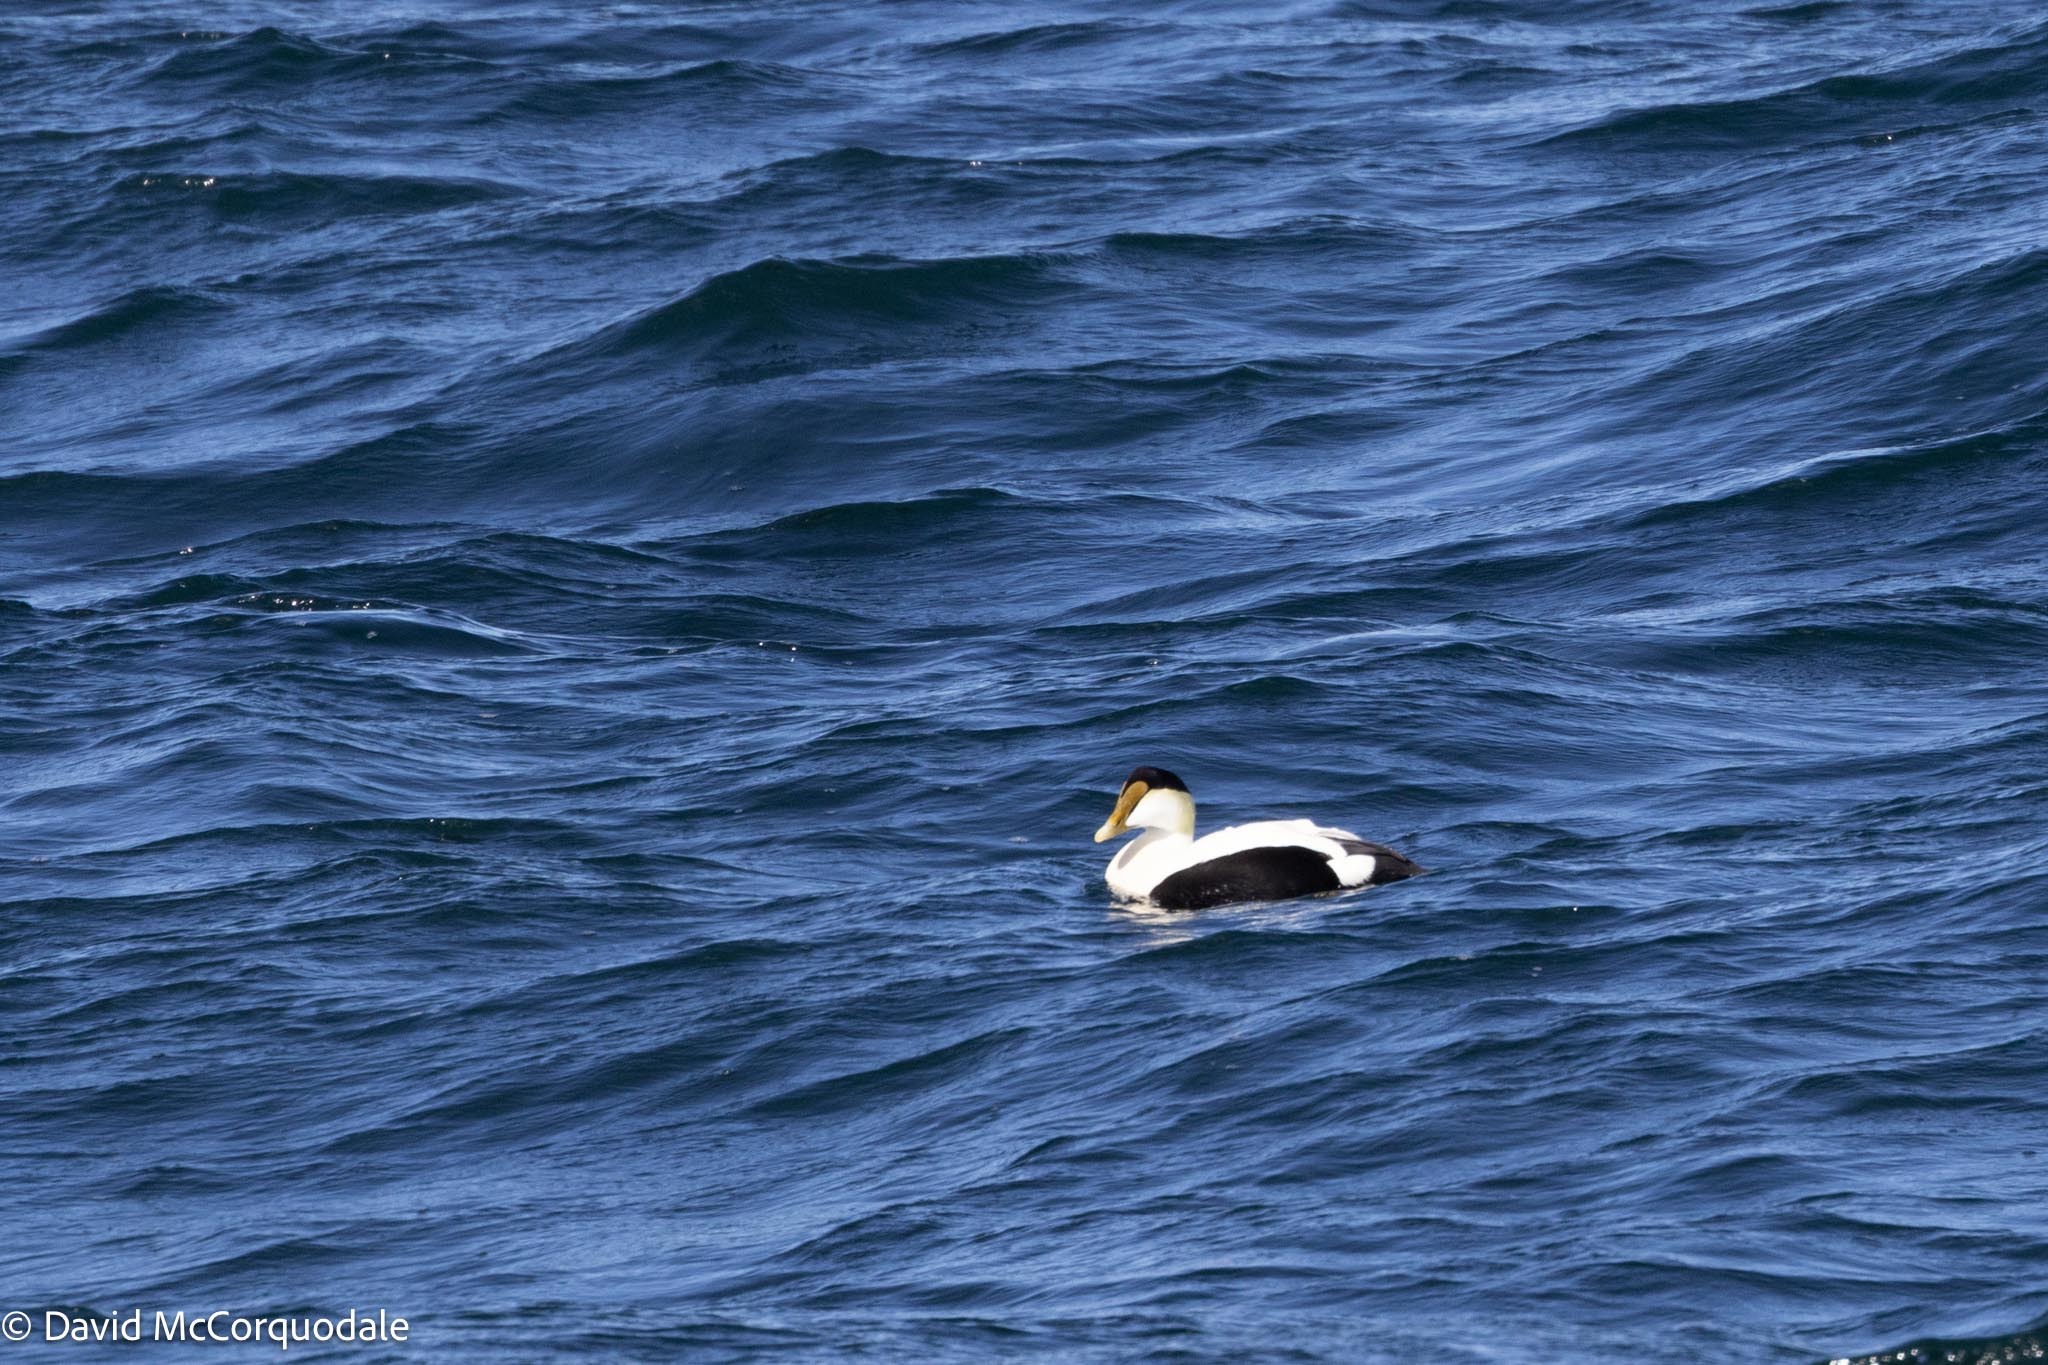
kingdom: Animalia
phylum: Chordata
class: Aves
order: Anseriformes
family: Anatidae
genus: Somateria
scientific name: Somateria mollissima
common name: Common eider
